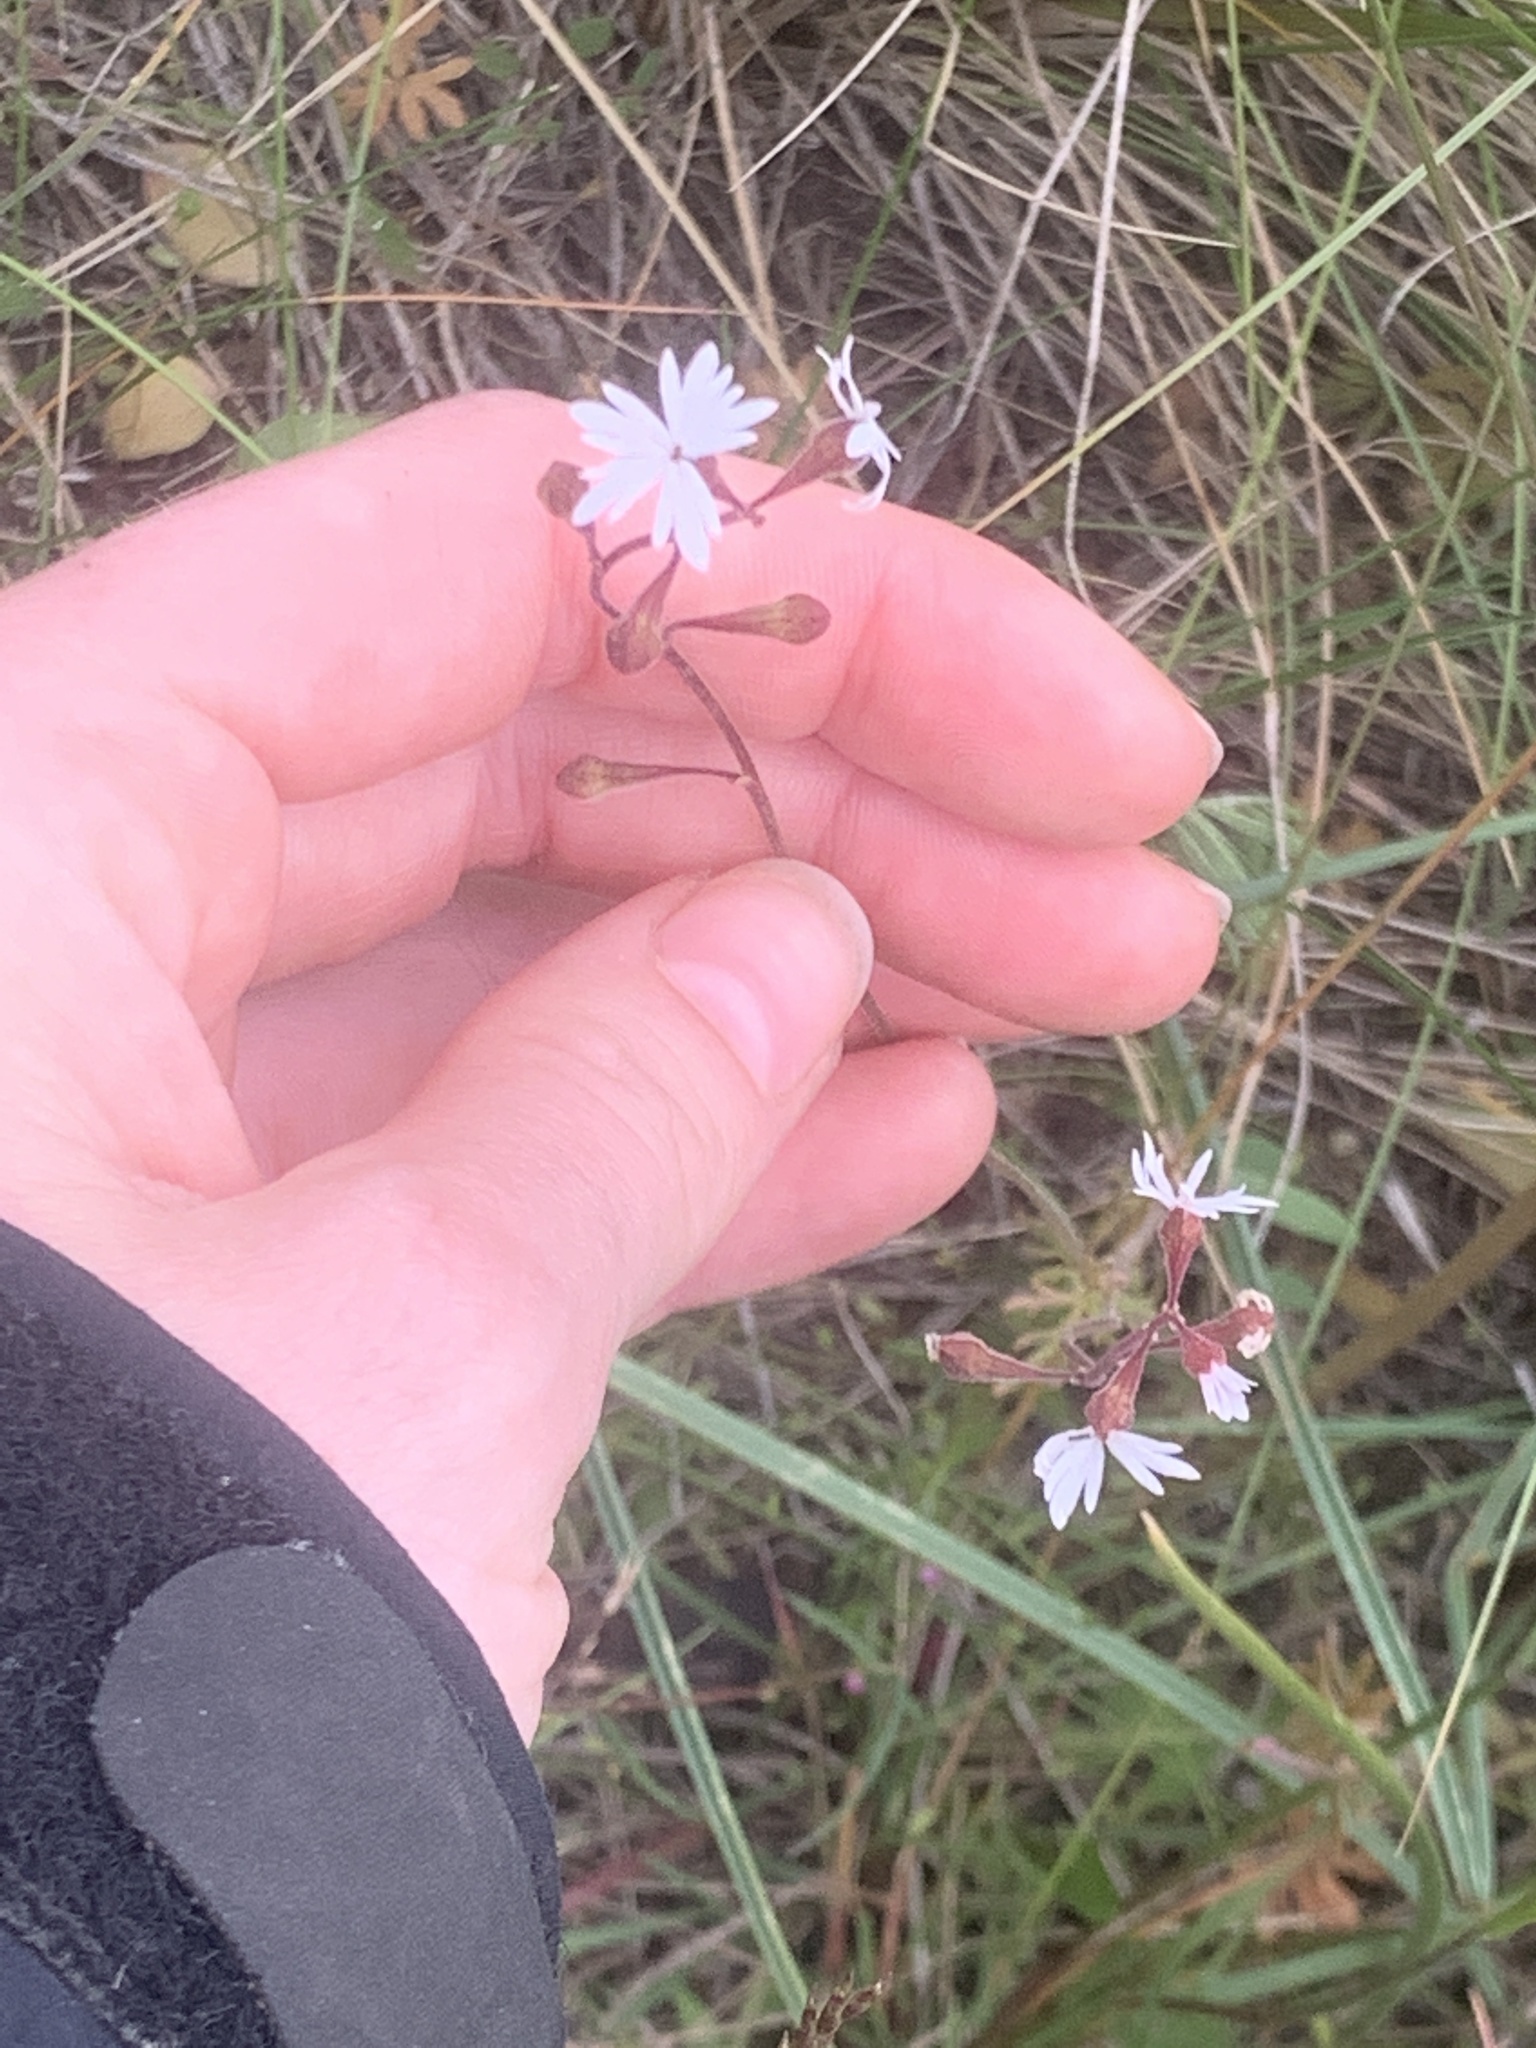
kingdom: Plantae
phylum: Tracheophyta
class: Magnoliopsida
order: Saxifragales
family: Saxifragaceae
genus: Lithophragma
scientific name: Lithophragma parviflorum
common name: Small-flowered fringe-cup
